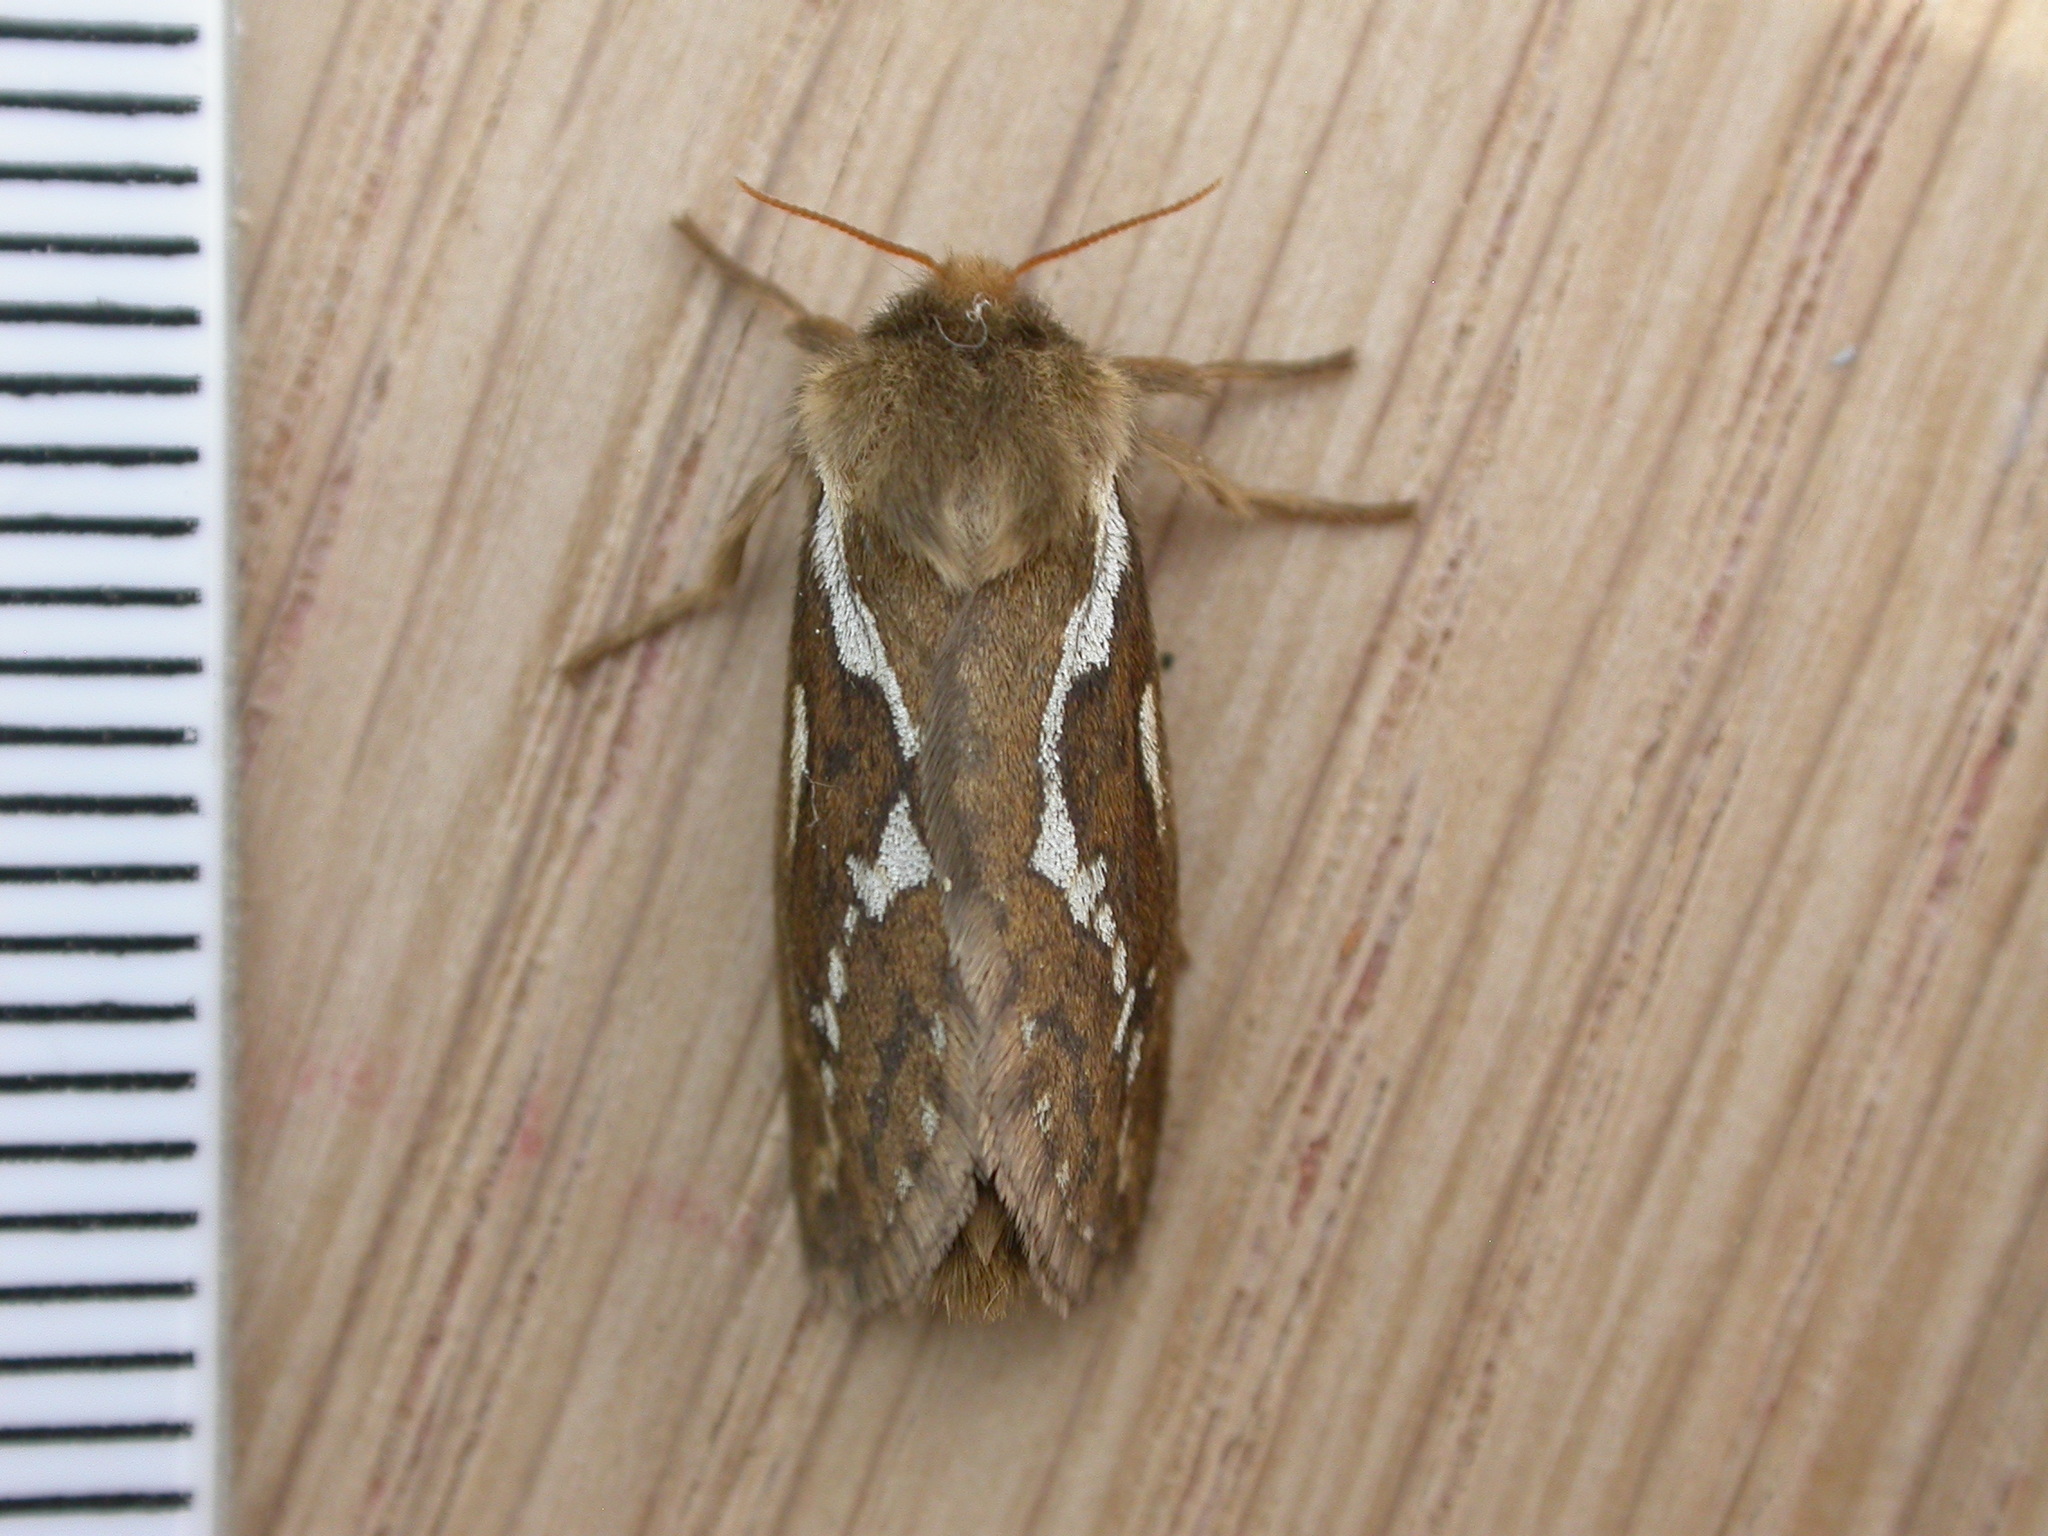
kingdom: Animalia
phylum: Arthropoda
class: Insecta
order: Lepidoptera
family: Hepialidae
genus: Korscheltellus
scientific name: Korscheltellus lupulina
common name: Common swift
